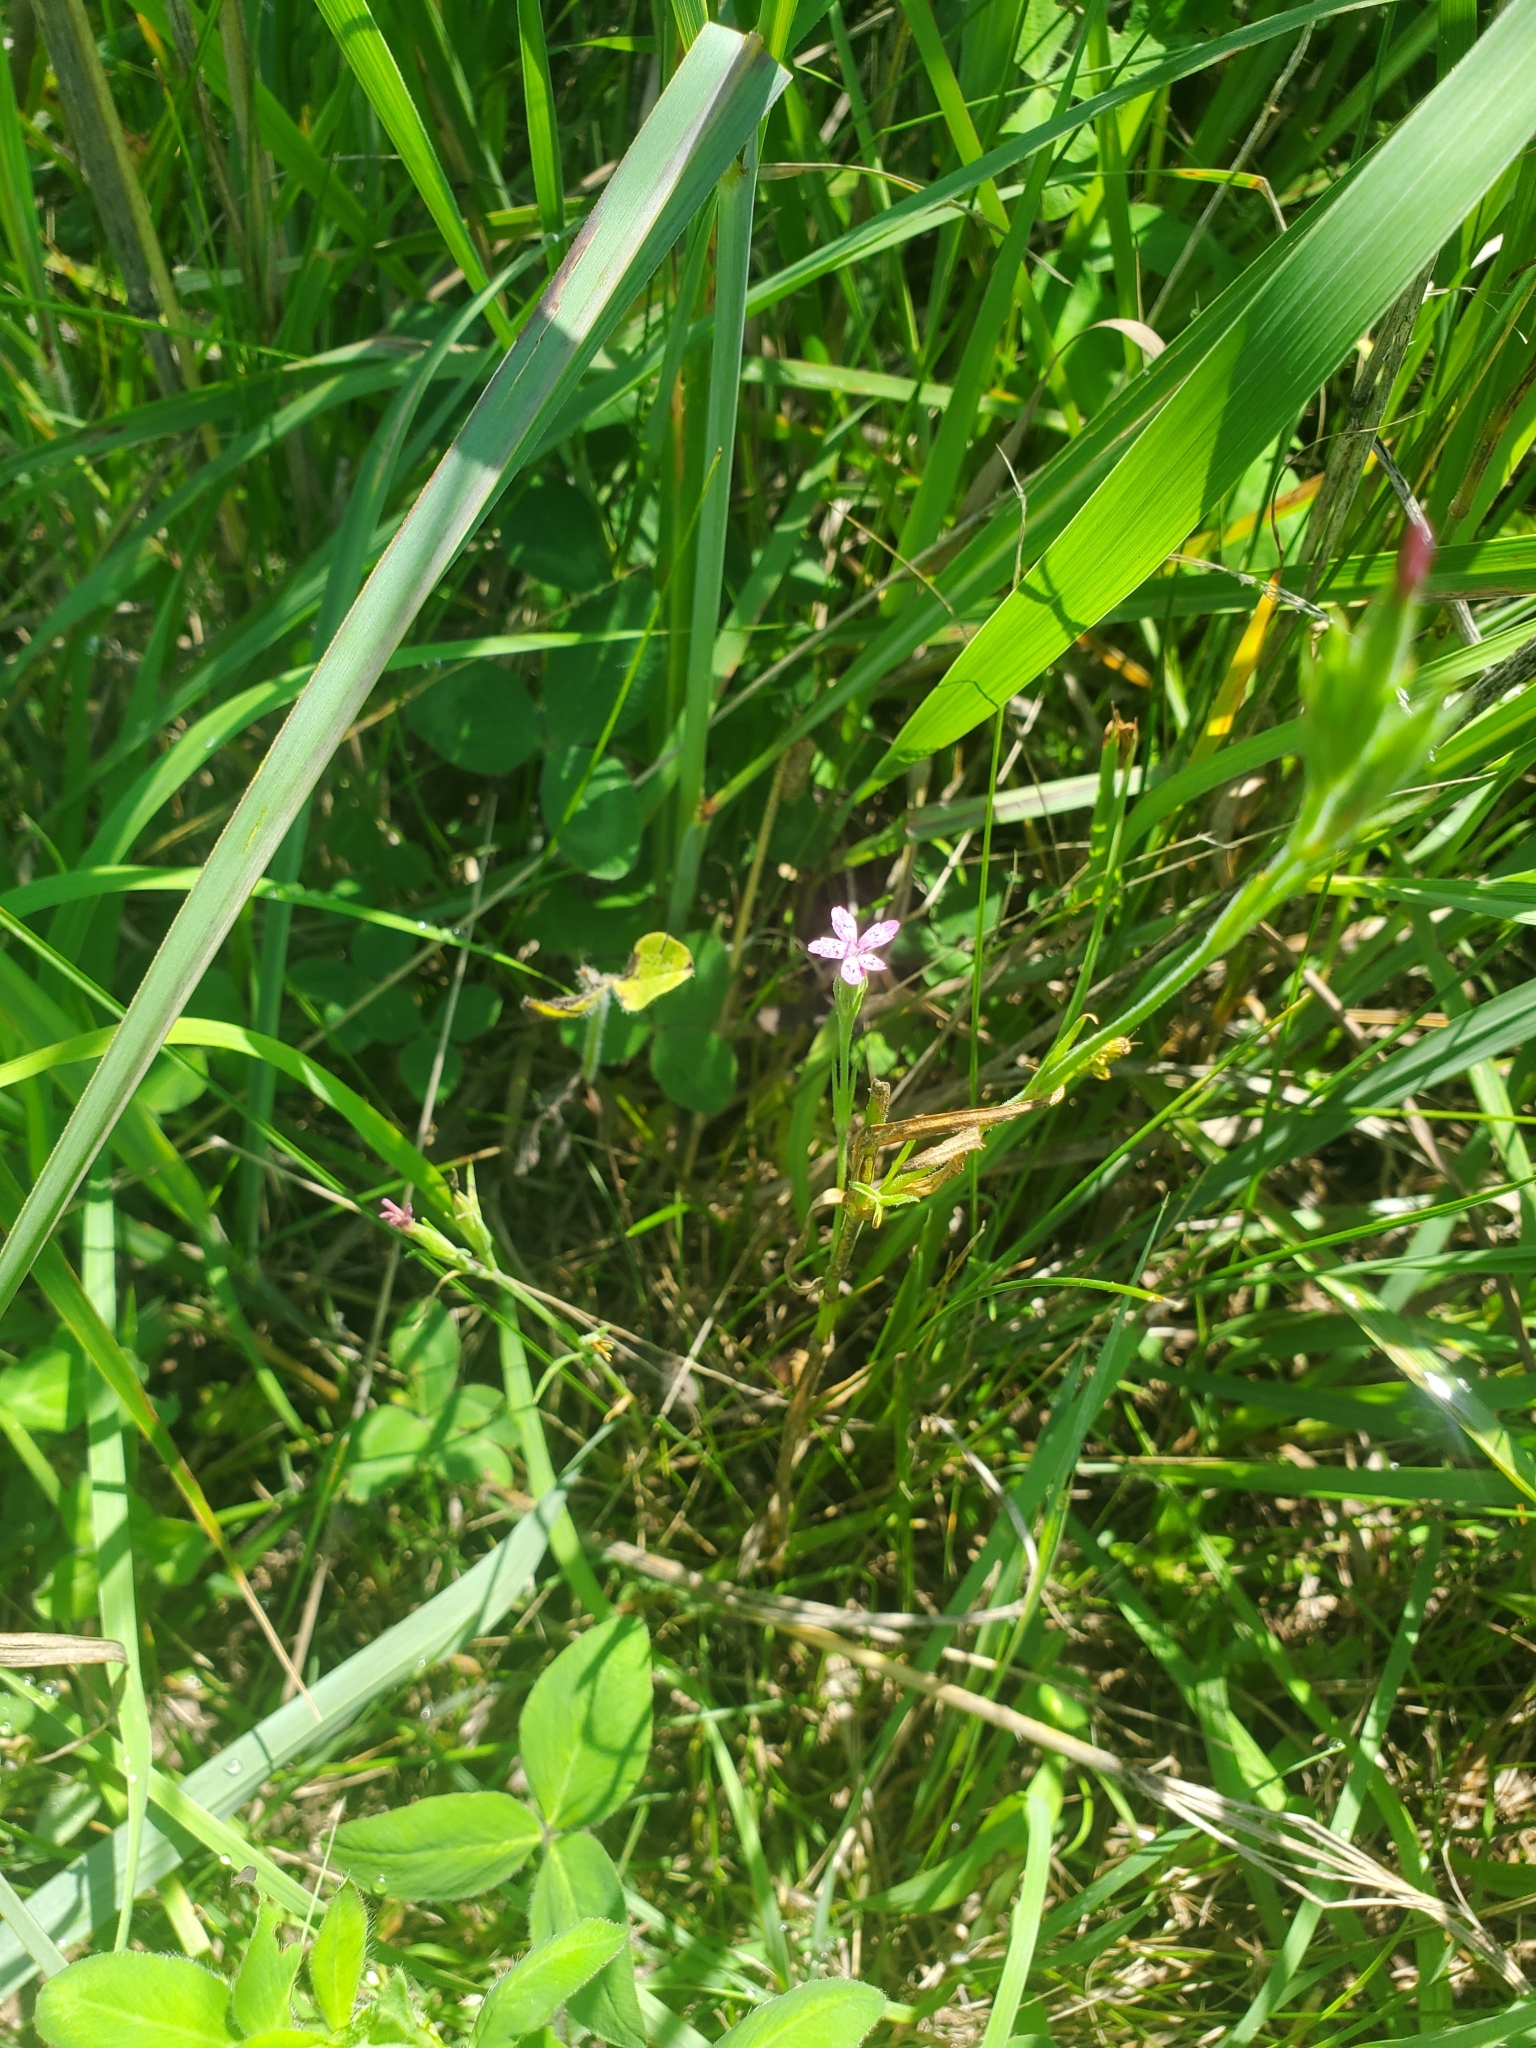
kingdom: Plantae
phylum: Tracheophyta
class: Magnoliopsida
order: Caryophyllales
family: Caryophyllaceae
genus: Dianthus
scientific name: Dianthus armeria
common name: Deptford pink
